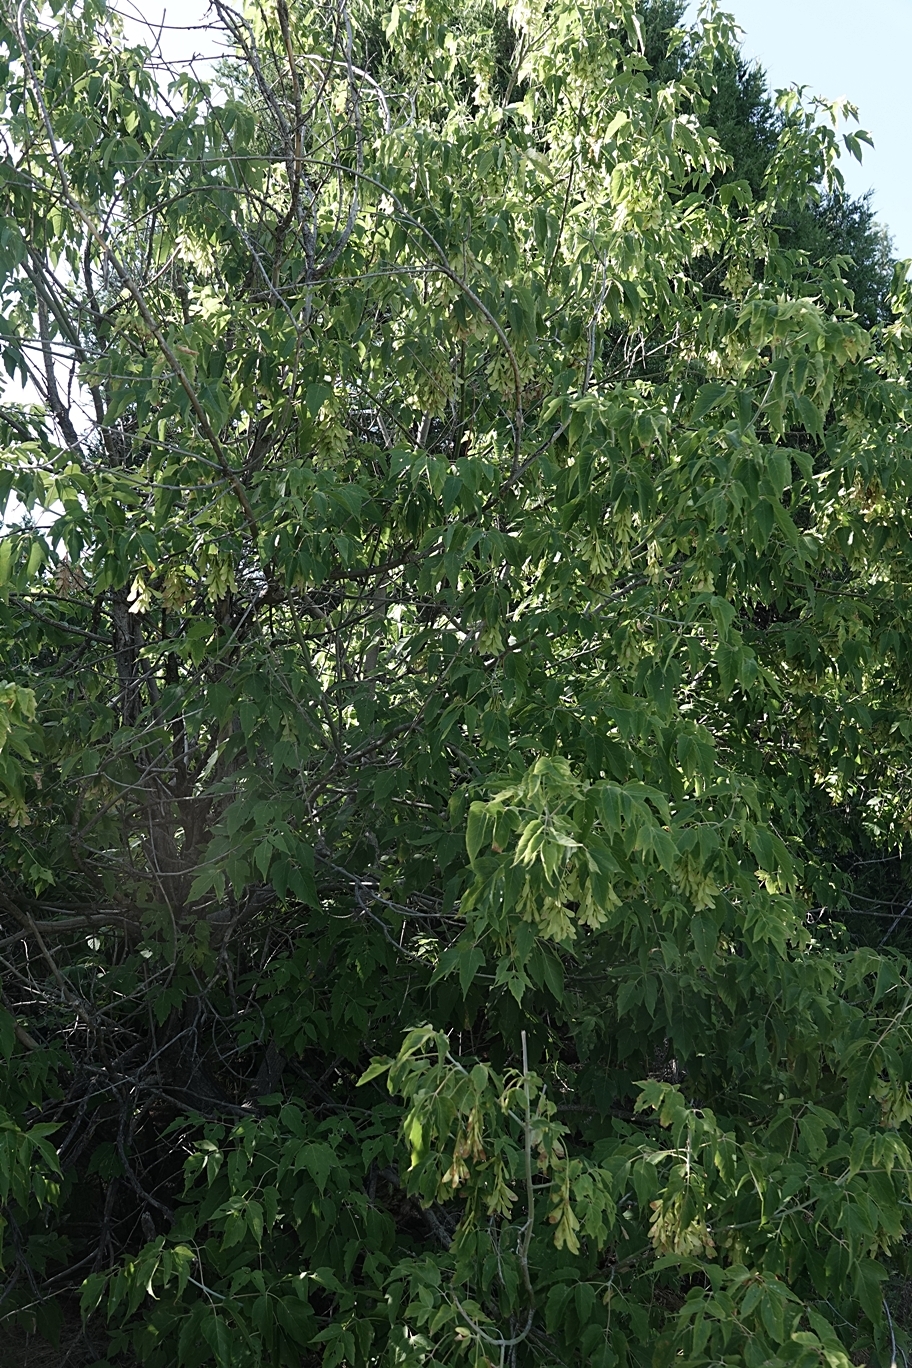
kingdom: Plantae
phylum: Tracheophyta
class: Magnoliopsida
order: Sapindales
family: Sapindaceae
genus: Acer
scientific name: Acer negundo
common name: Ashleaf maple
